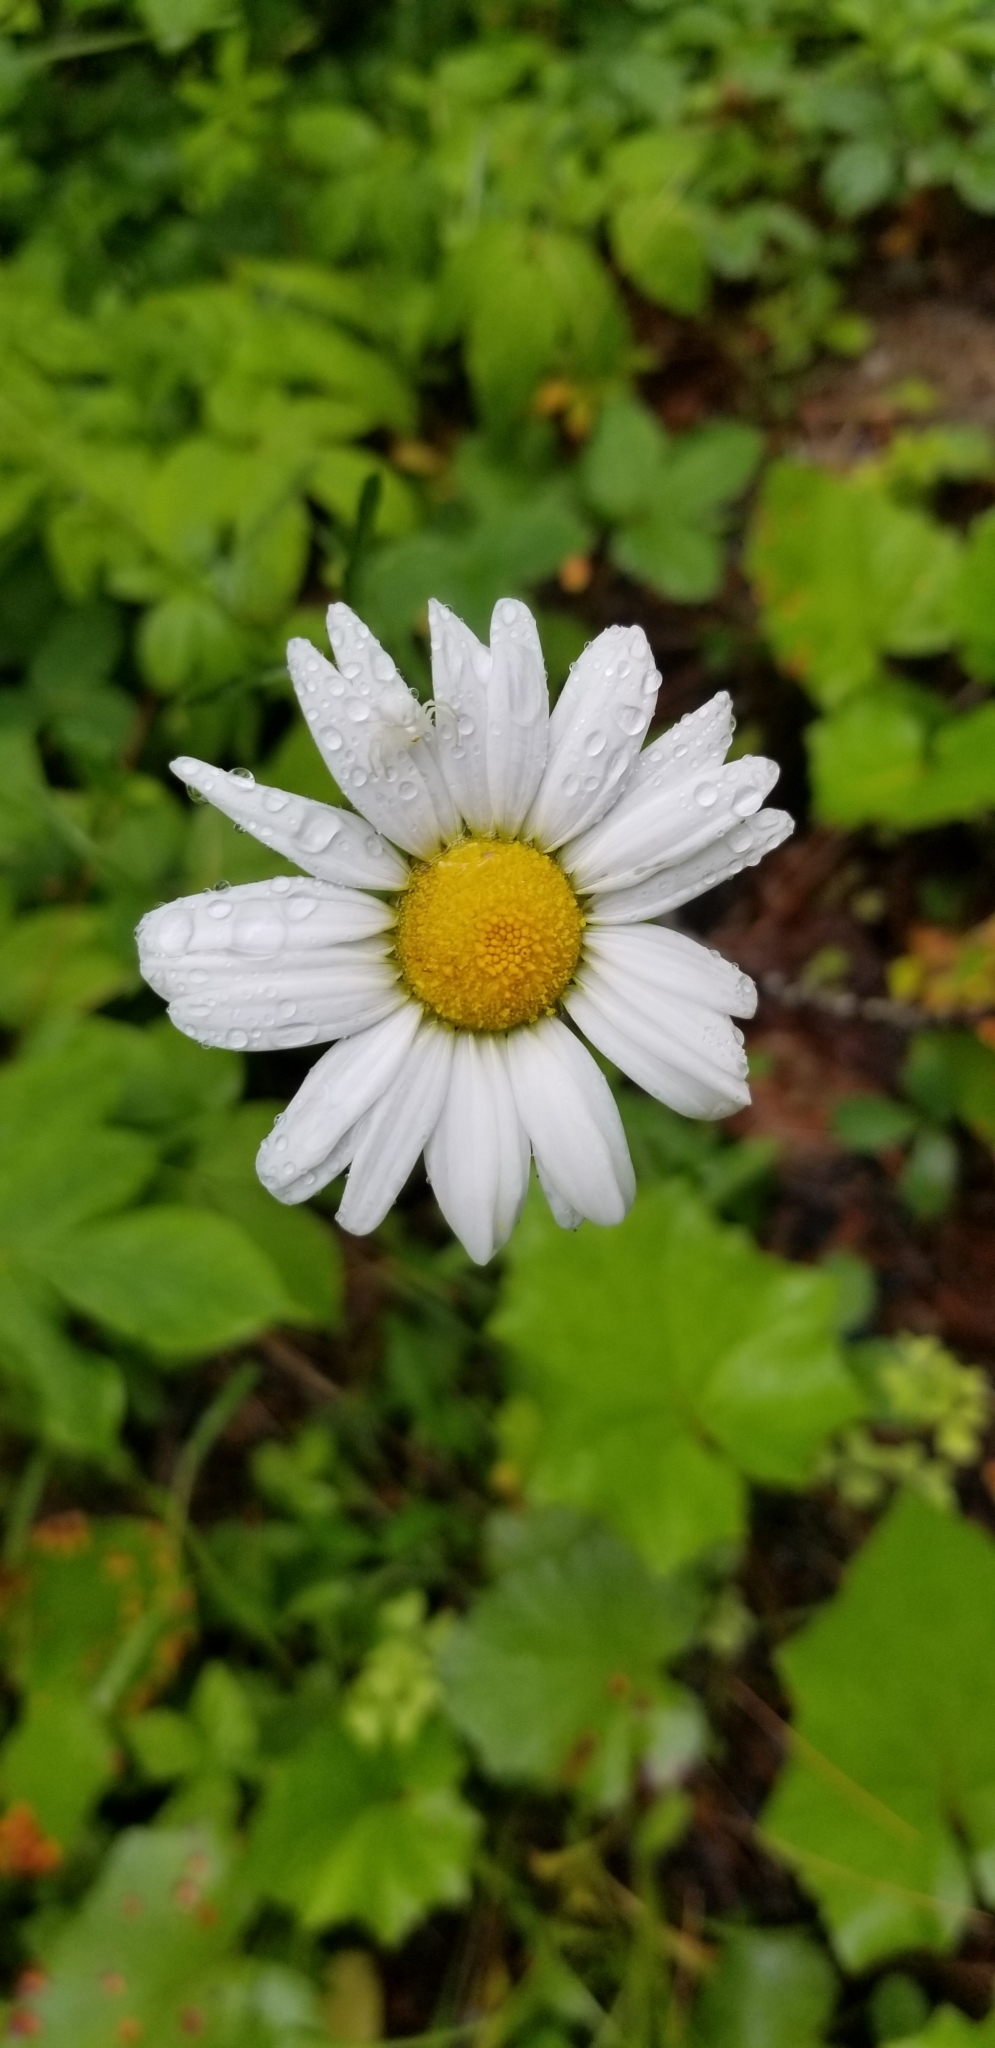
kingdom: Plantae
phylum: Tracheophyta
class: Magnoliopsida
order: Asterales
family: Asteraceae
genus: Leucanthemum
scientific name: Leucanthemum vulgare
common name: Oxeye daisy
